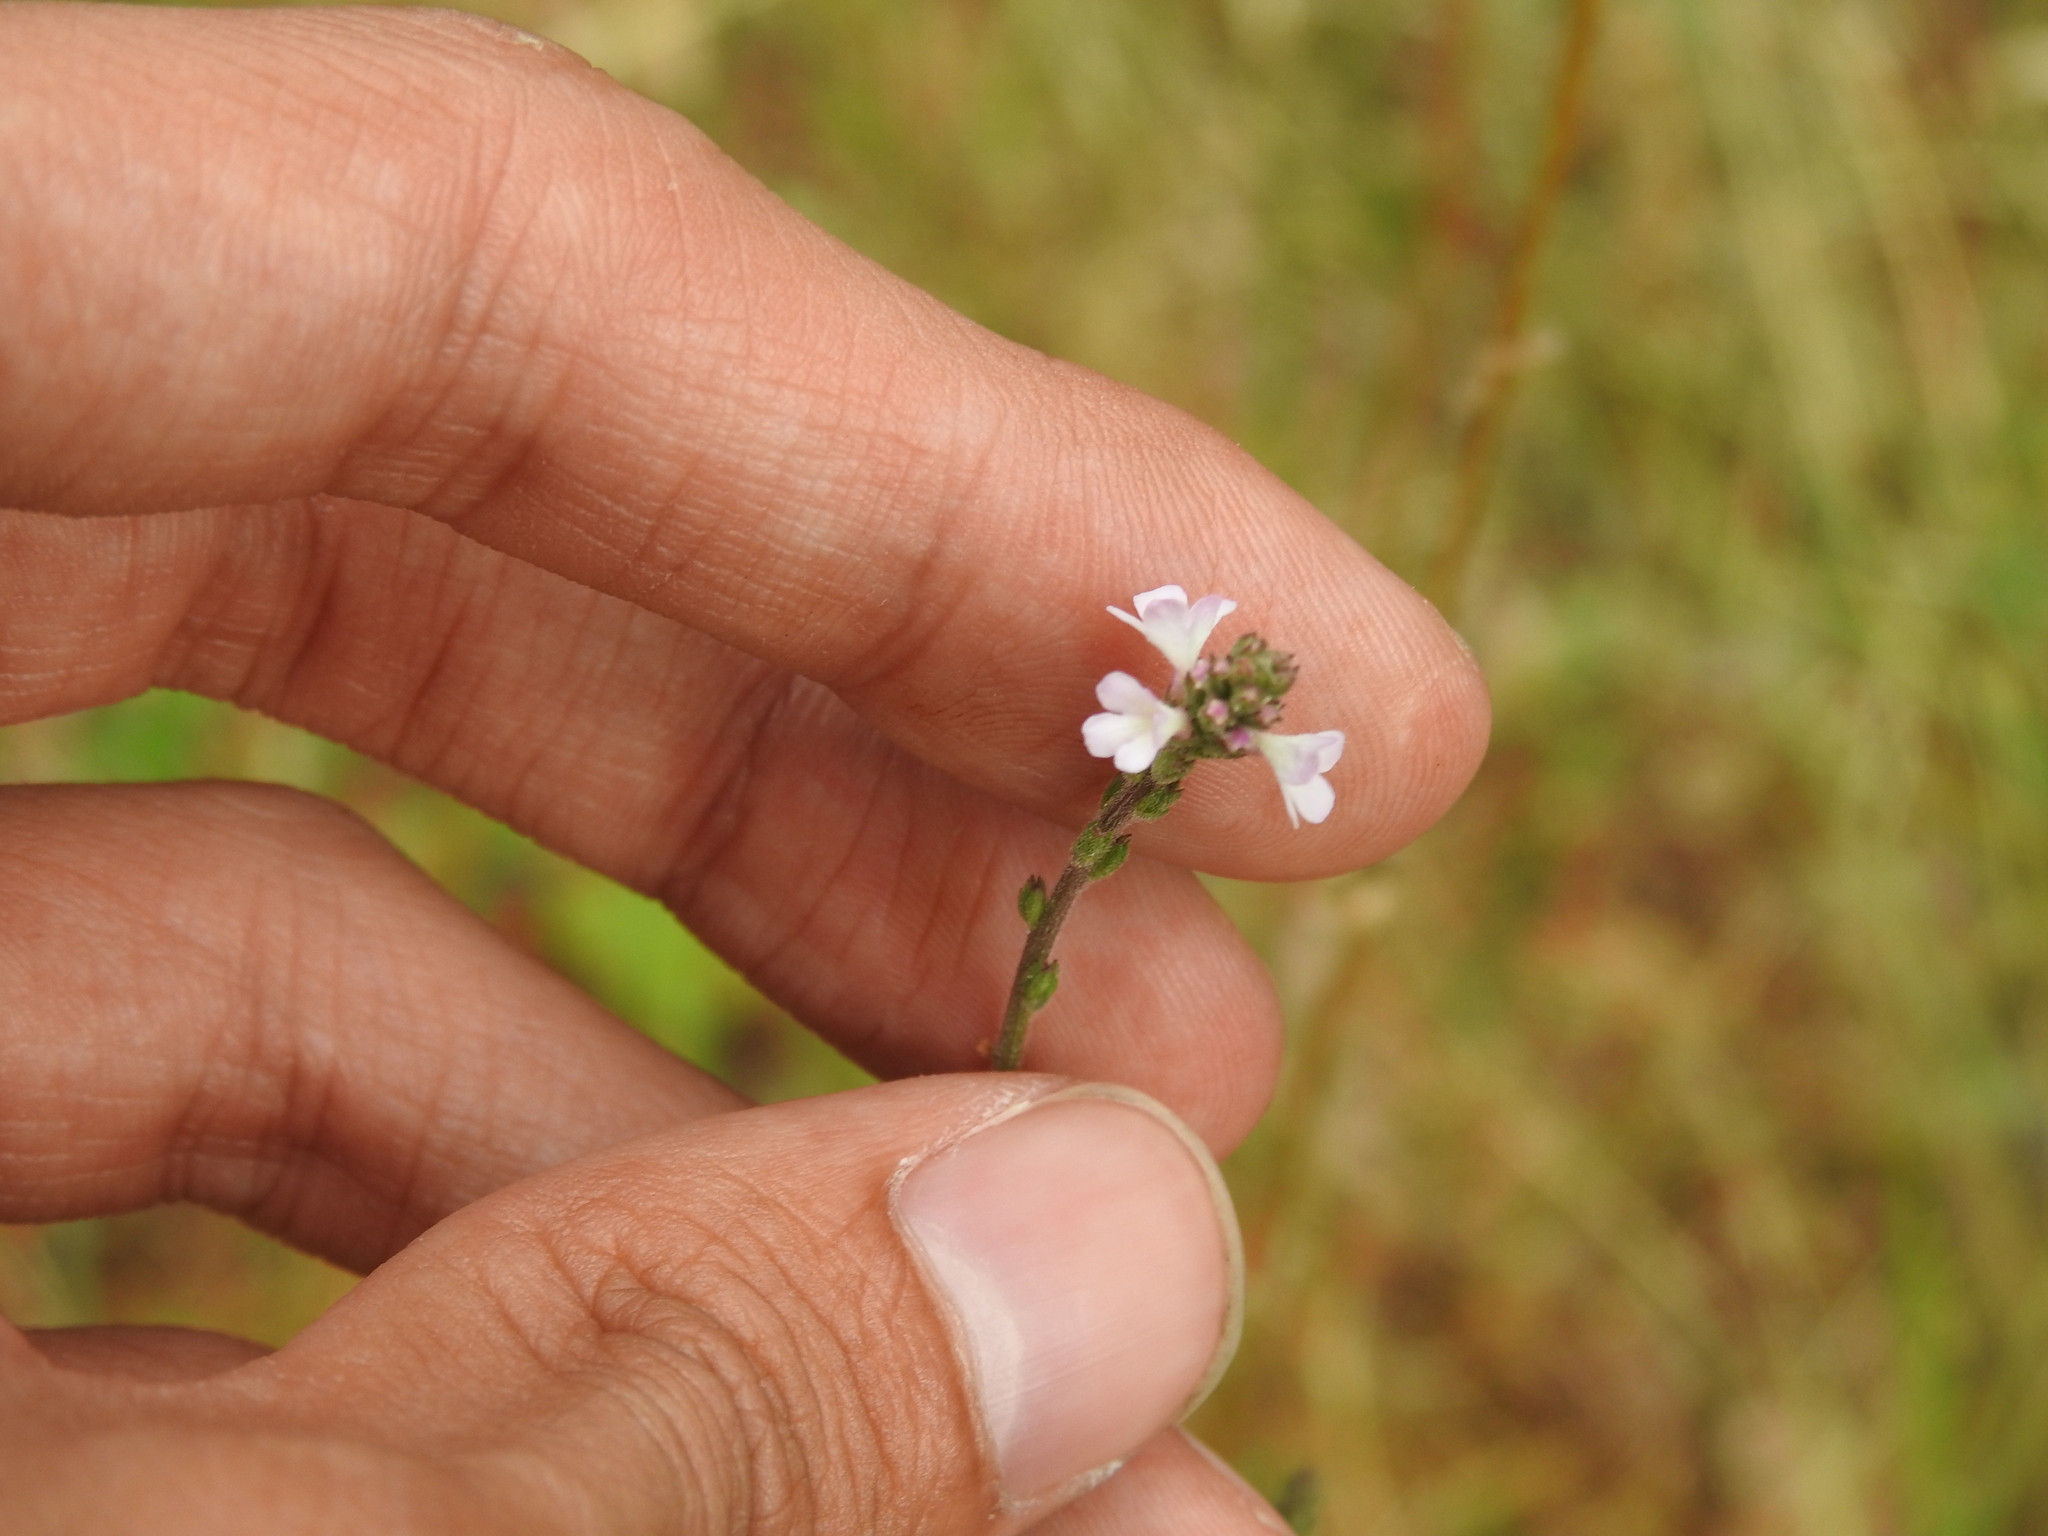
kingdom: Plantae
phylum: Tracheophyta
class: Magnoliopsida
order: Lamiales
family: Verbenaceae
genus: Verbena
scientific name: Verbena officinalis
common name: Vervain
